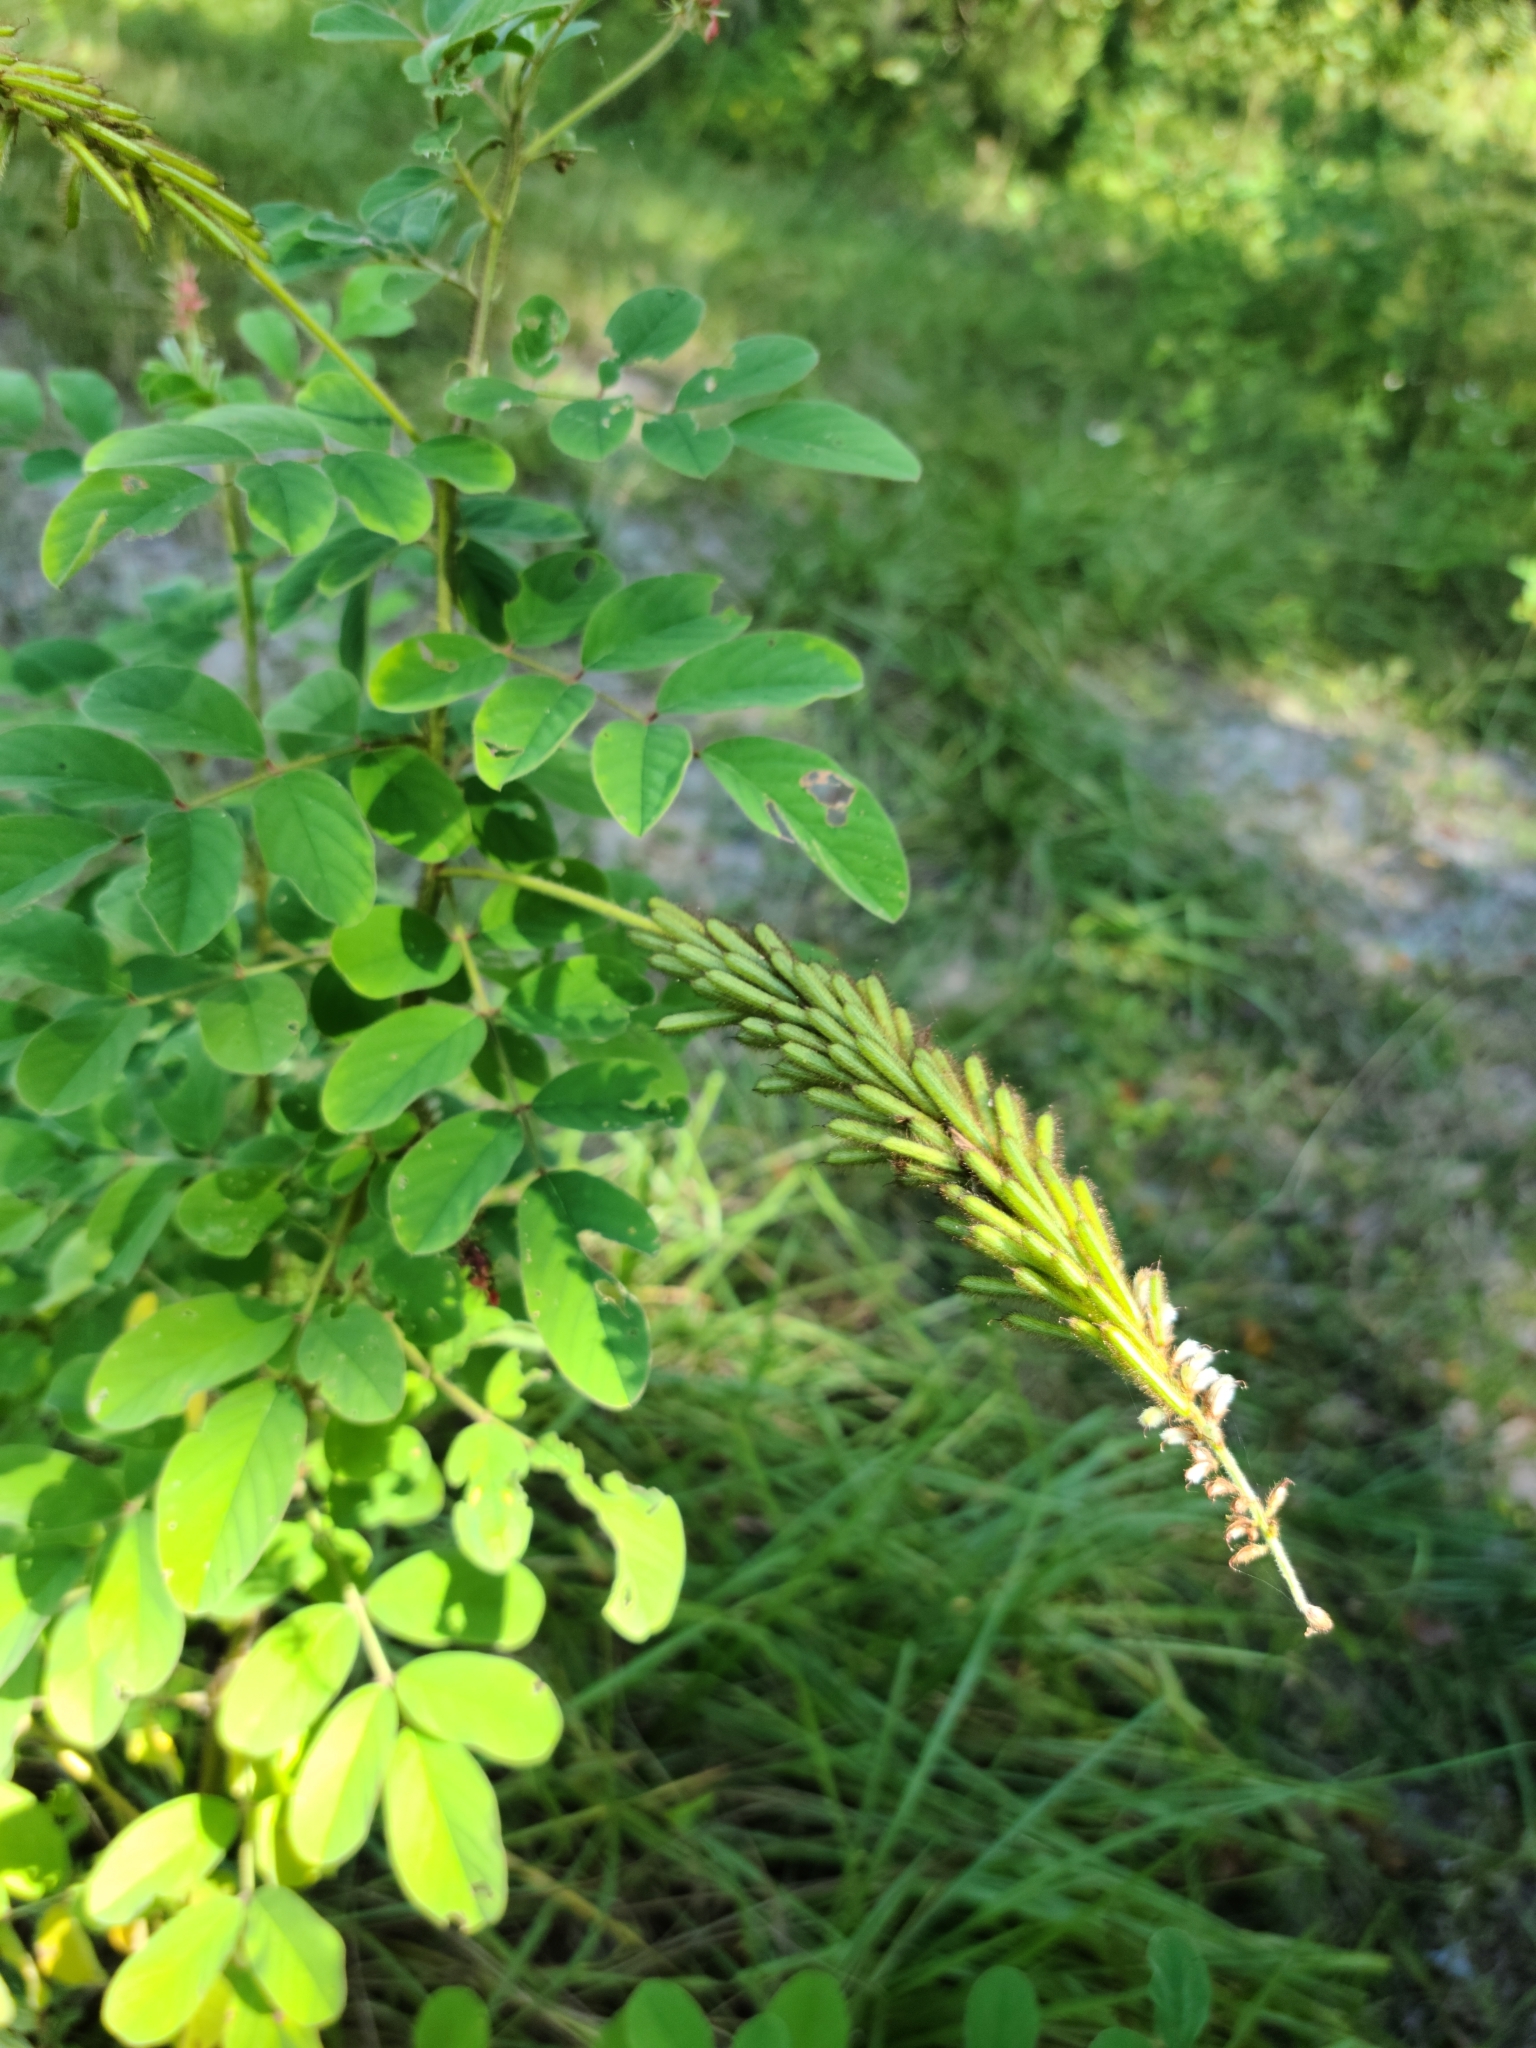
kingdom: Plantae
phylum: Tracheophyta
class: Magnoliopsida
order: Fabales
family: Fabaceae
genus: Indigofera
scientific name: Indigofera hirsuta
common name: Hairy indigo
